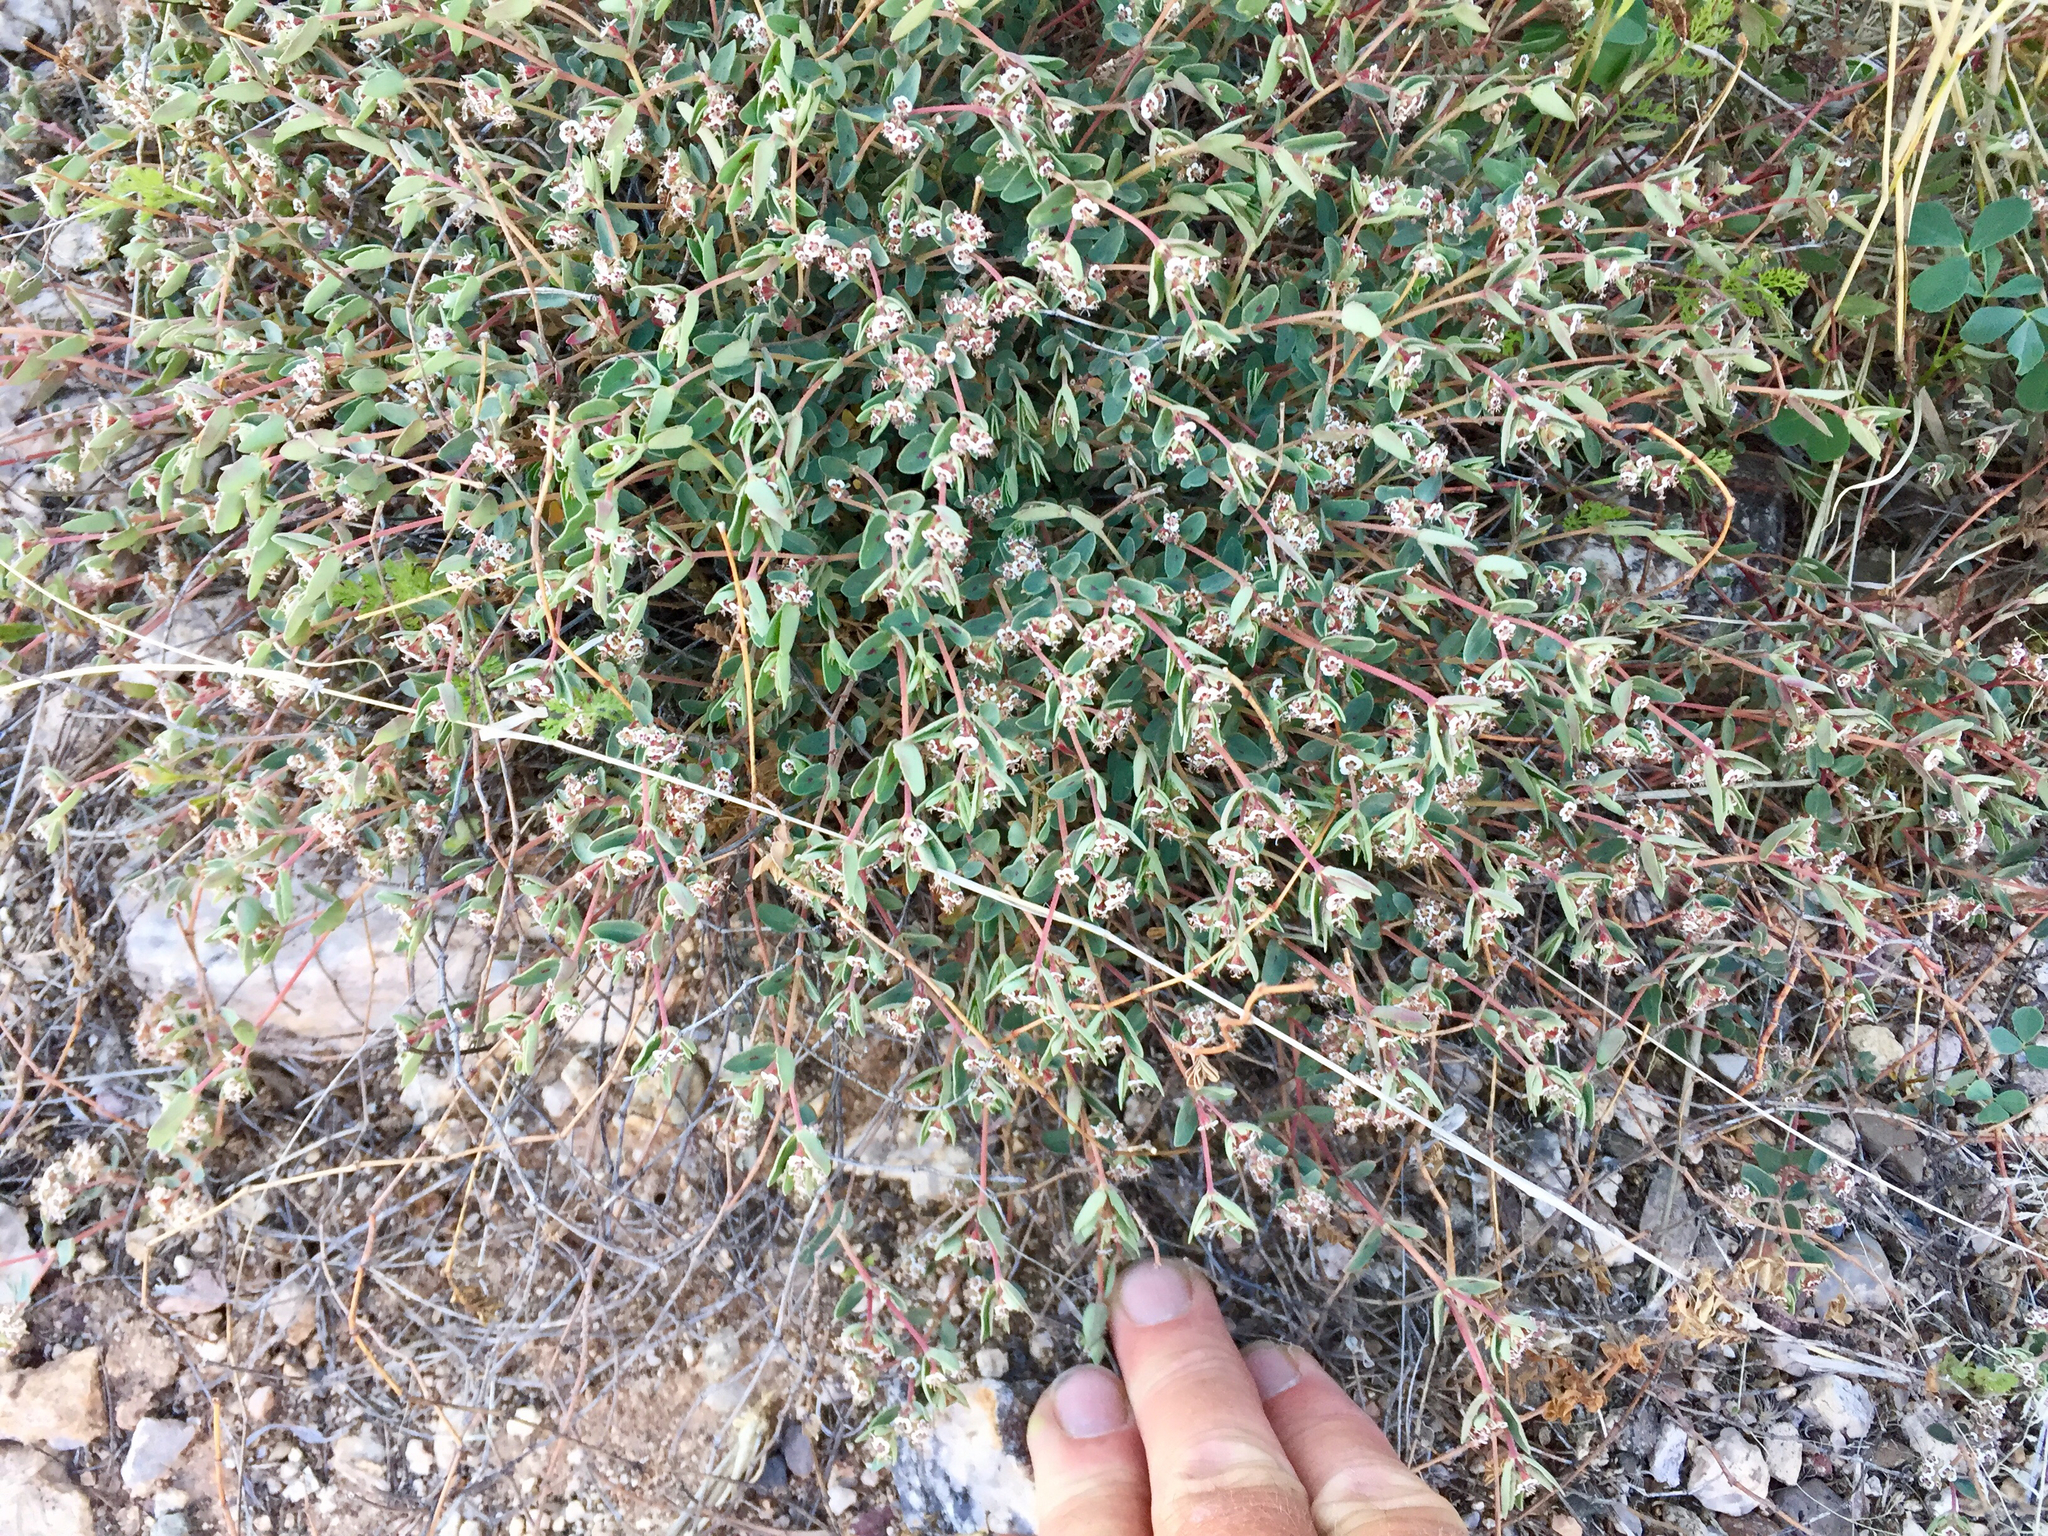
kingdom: Plantae
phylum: Tracheophyta
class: Magnoliopsida
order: Malpighiales
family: Euphorbiaceae
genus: Euphorbia
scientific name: Euphorbia capitellata
